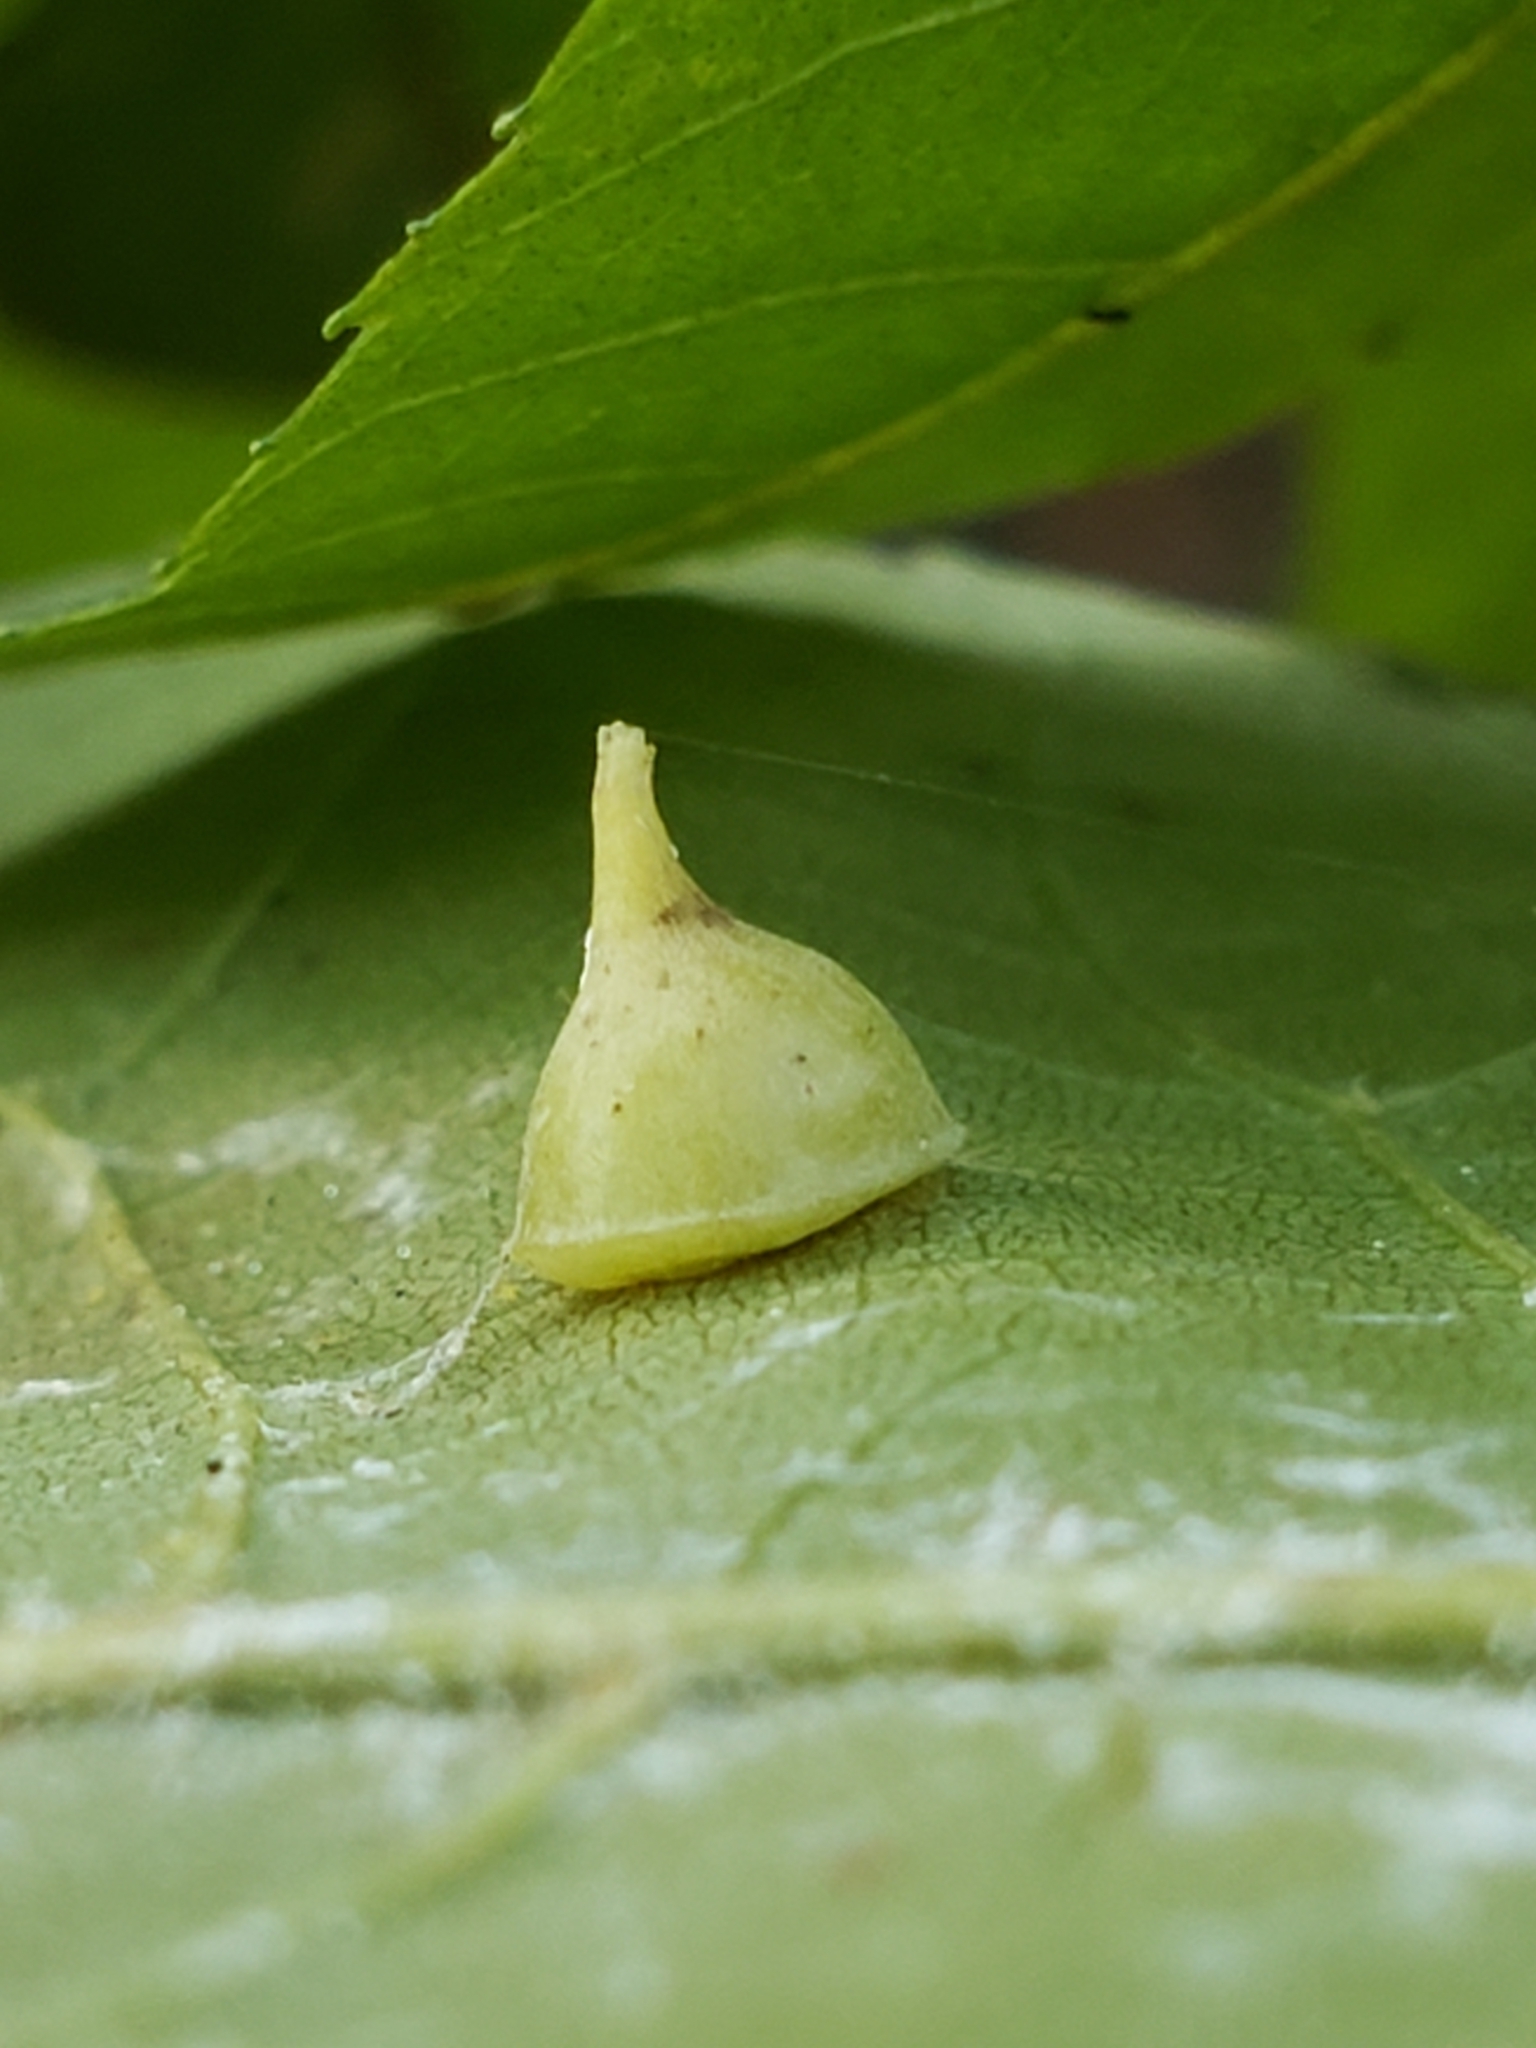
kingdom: Animalia
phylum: Arthropoda
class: Insecta
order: Diptera
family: Cecidomyiidae
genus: Caryomyia
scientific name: Caryomyia sanguinolenta
